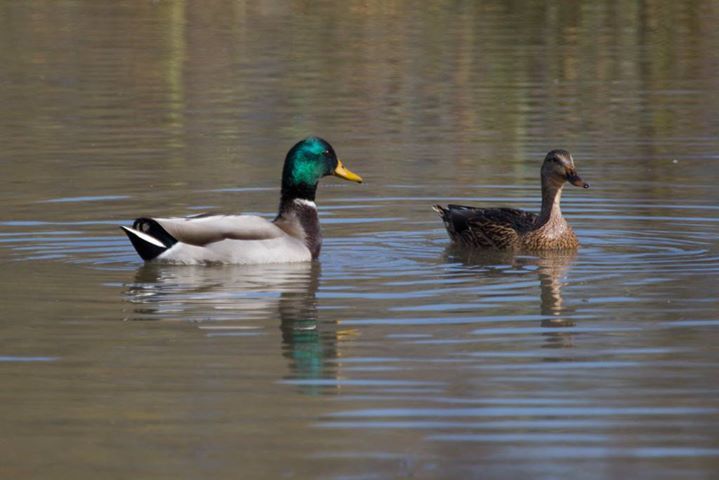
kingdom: Animalia
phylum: Chordata
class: Aves
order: Anseriformes
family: Anatidae
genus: Anas
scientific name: Anas platyrhynchos
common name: Mallard
